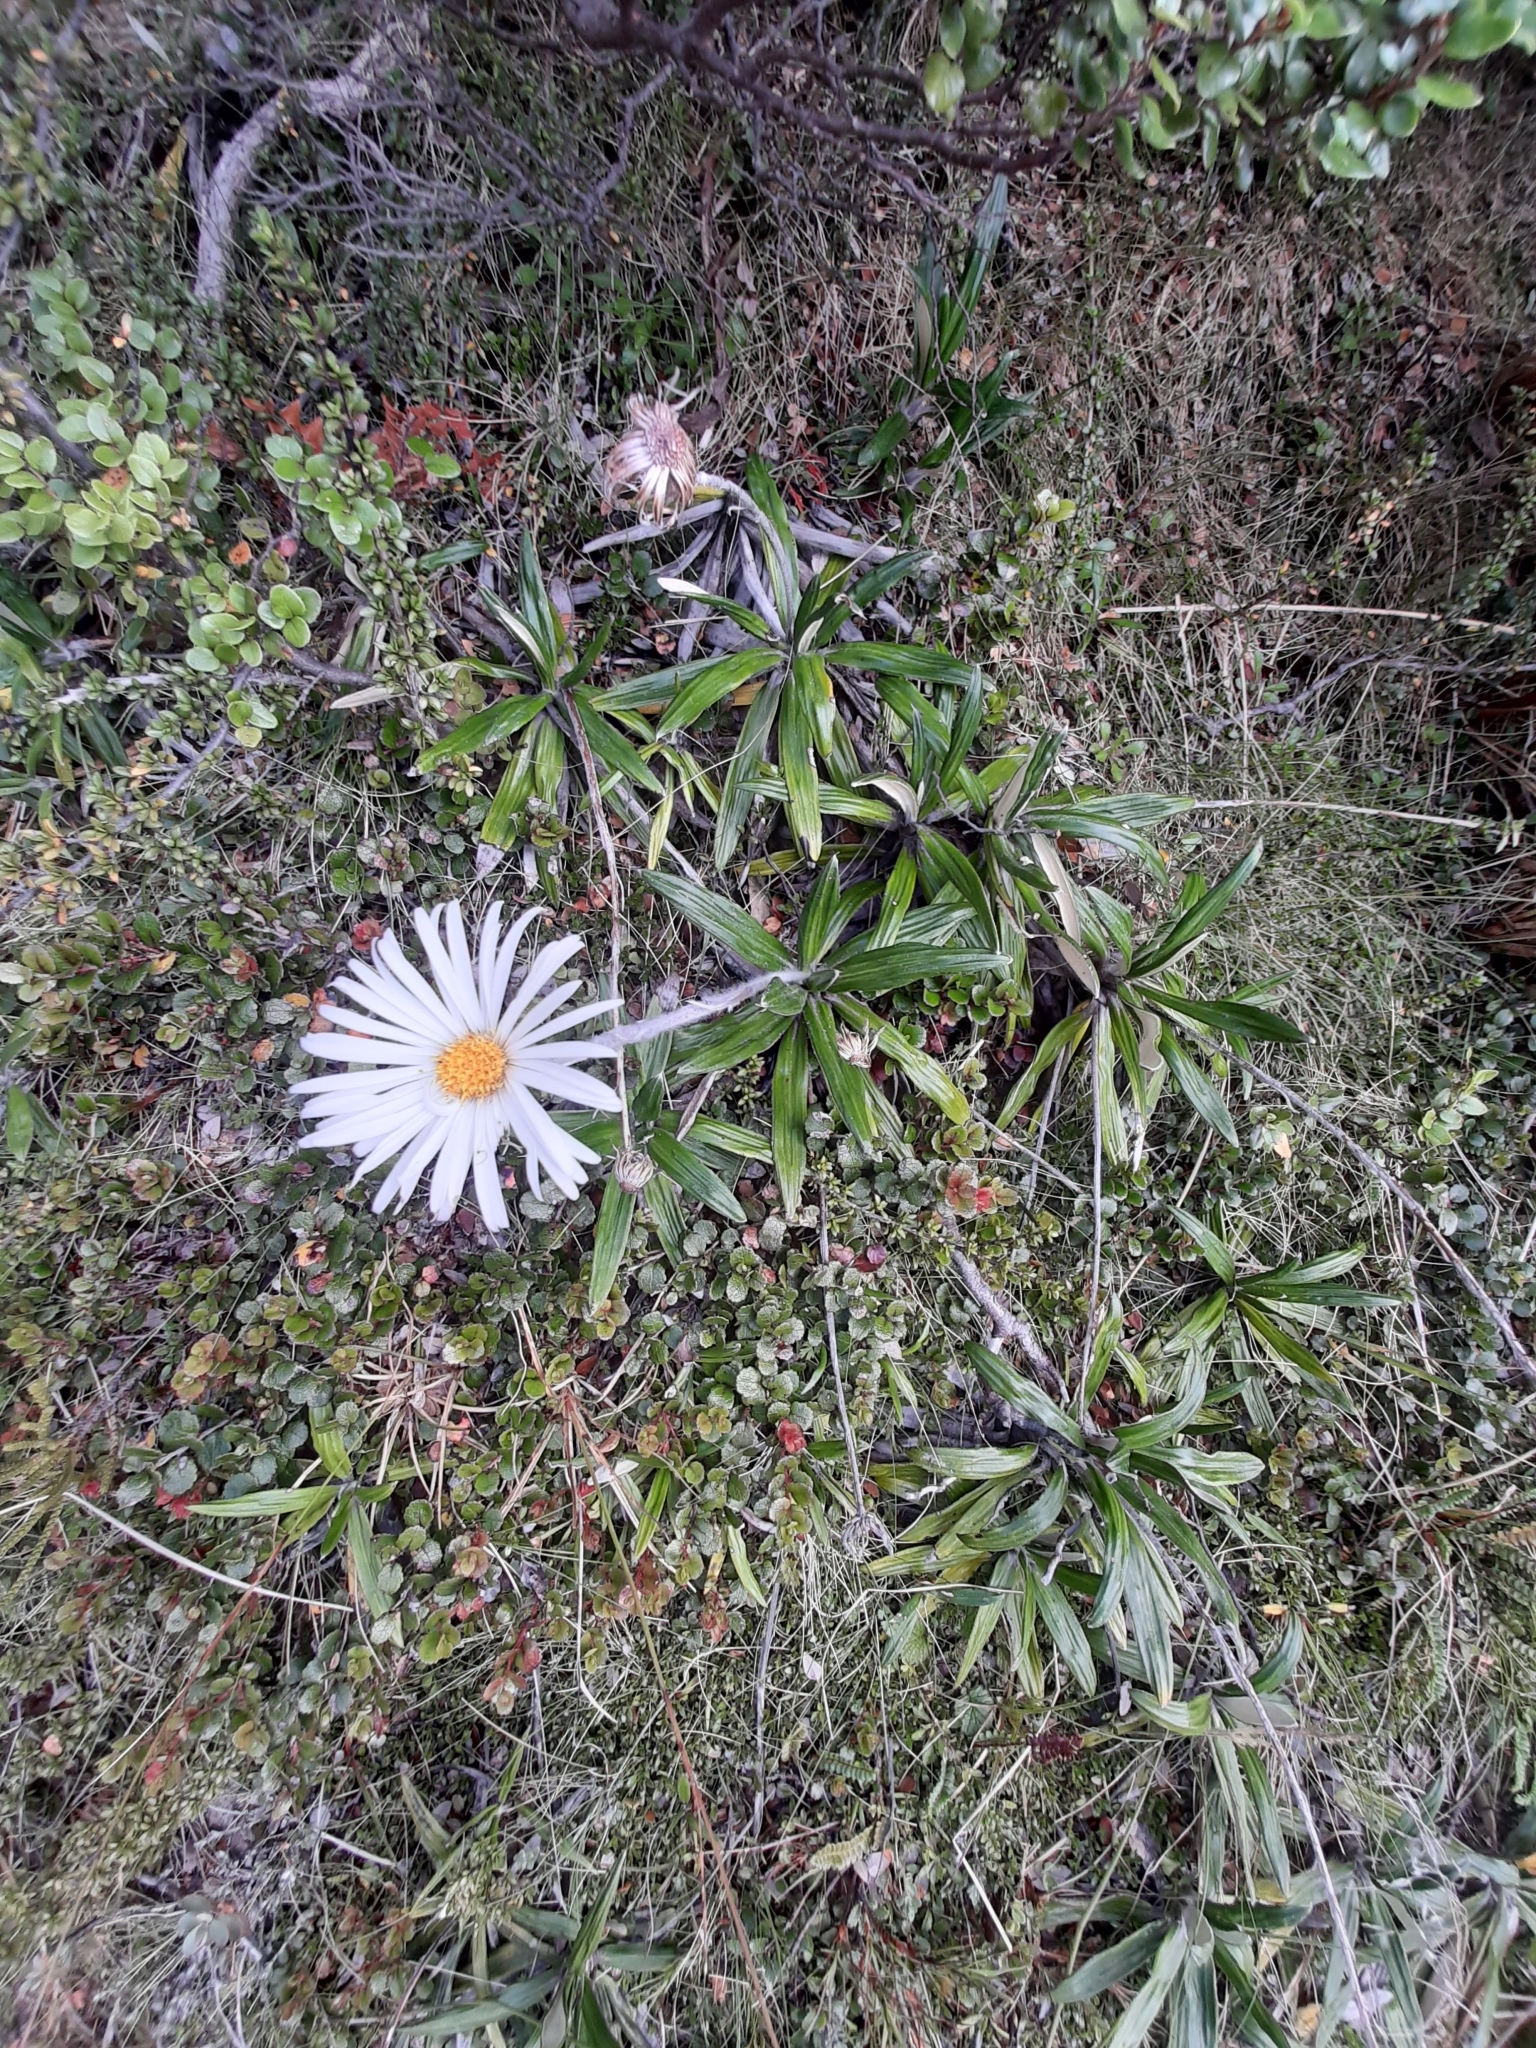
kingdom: Plantae
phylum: Tracheophyta
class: Magnoliopsida
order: Asterales
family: Asteraceae
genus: Celmisia
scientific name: Celmisia spectabilis
